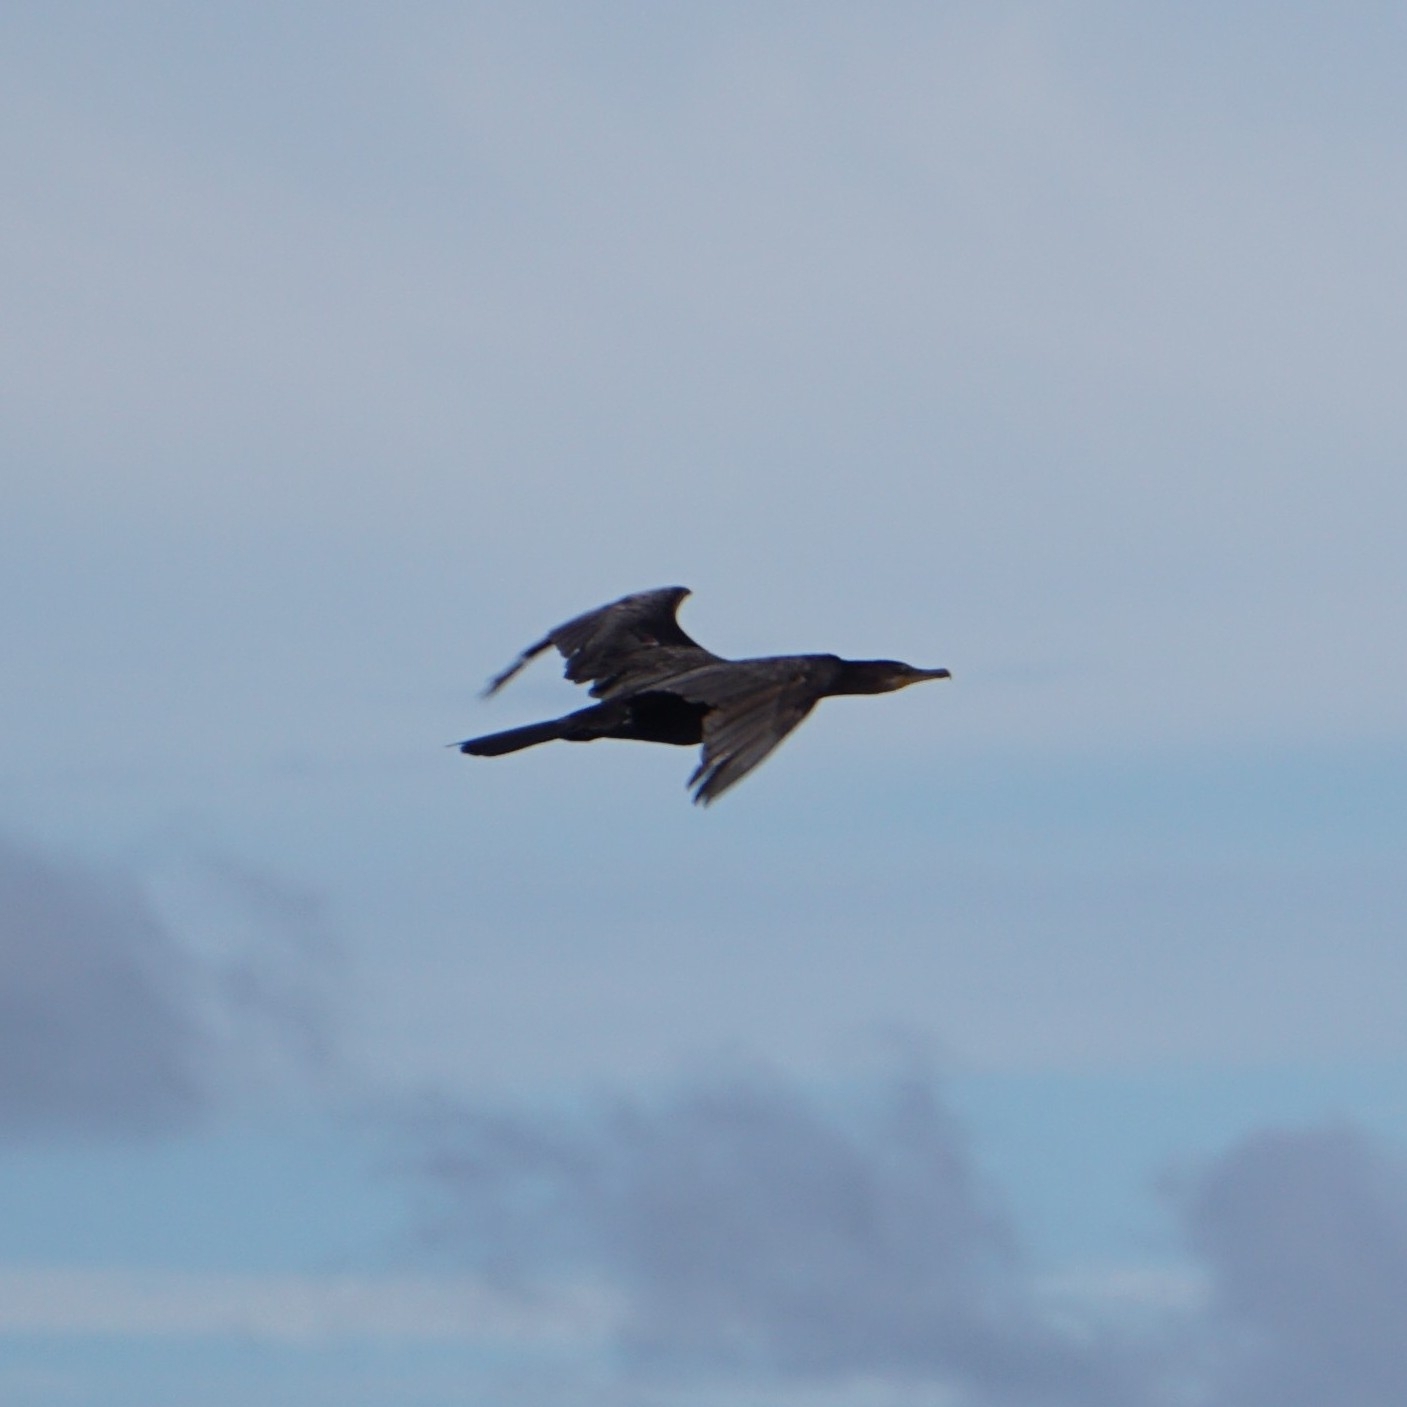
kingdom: Animalia
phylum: Chordata
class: Aves
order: Suliformes
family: Phalacrocoracidae
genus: Phalacrocorax
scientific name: Phalacrocorax brasilianus
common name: Neotropic cormorant
